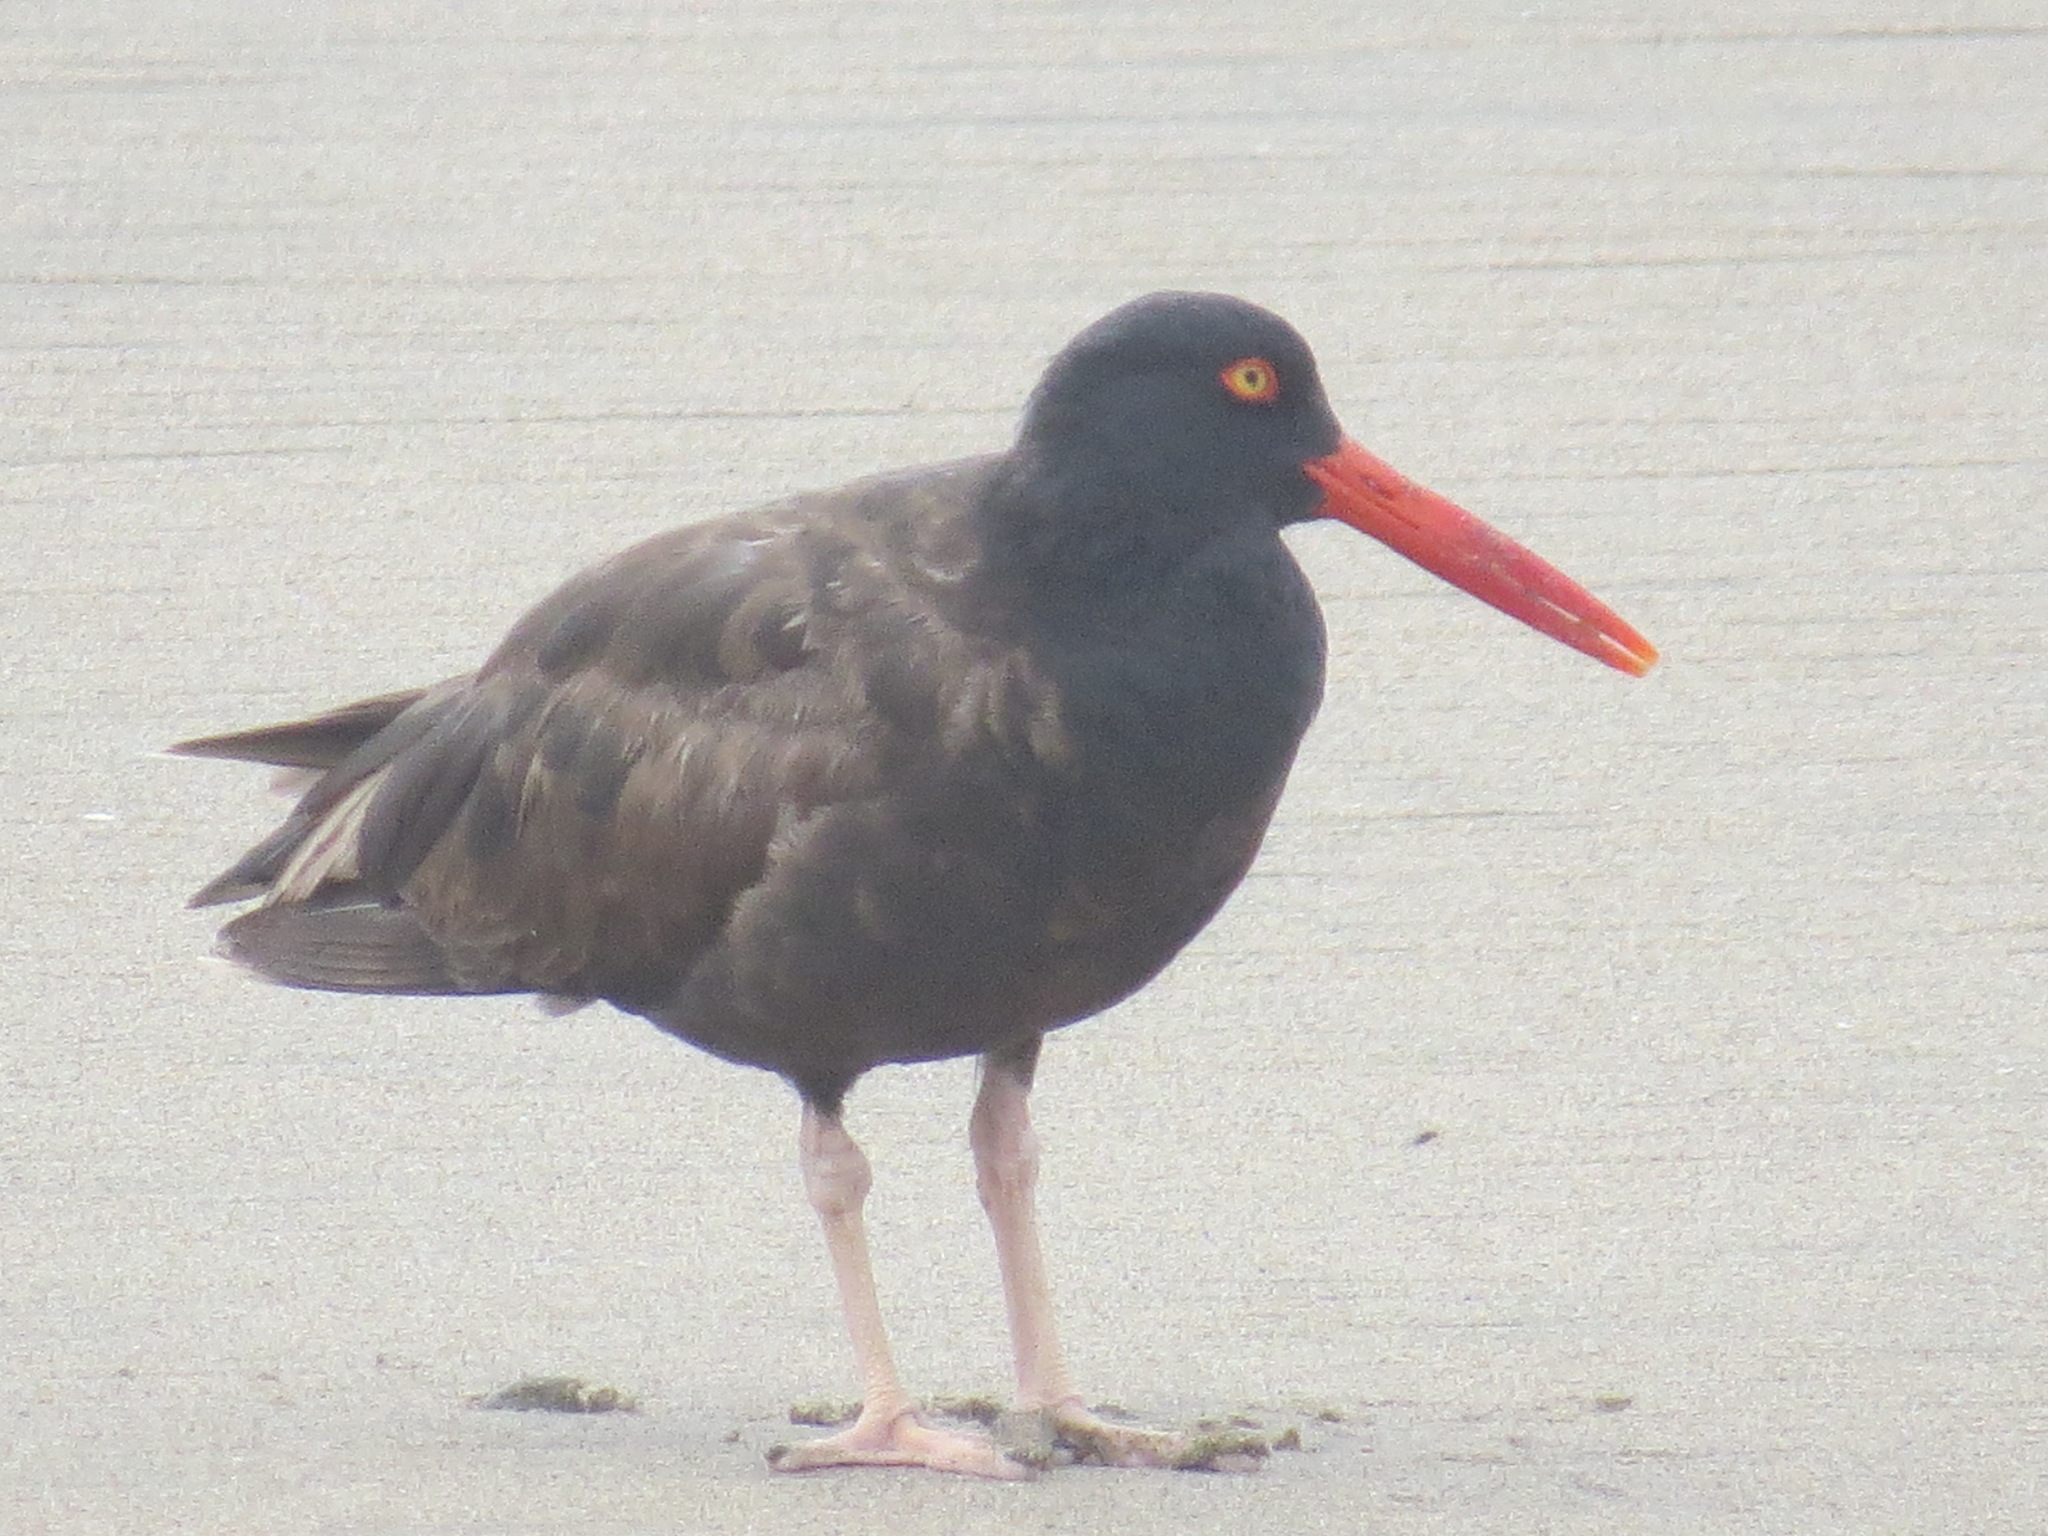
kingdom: Animalia
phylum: Chordata
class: Aves
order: Charadriiformes
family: Haematopodidae
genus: Haematopus
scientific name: Haematopus bachmani
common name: Black oystercatcher
